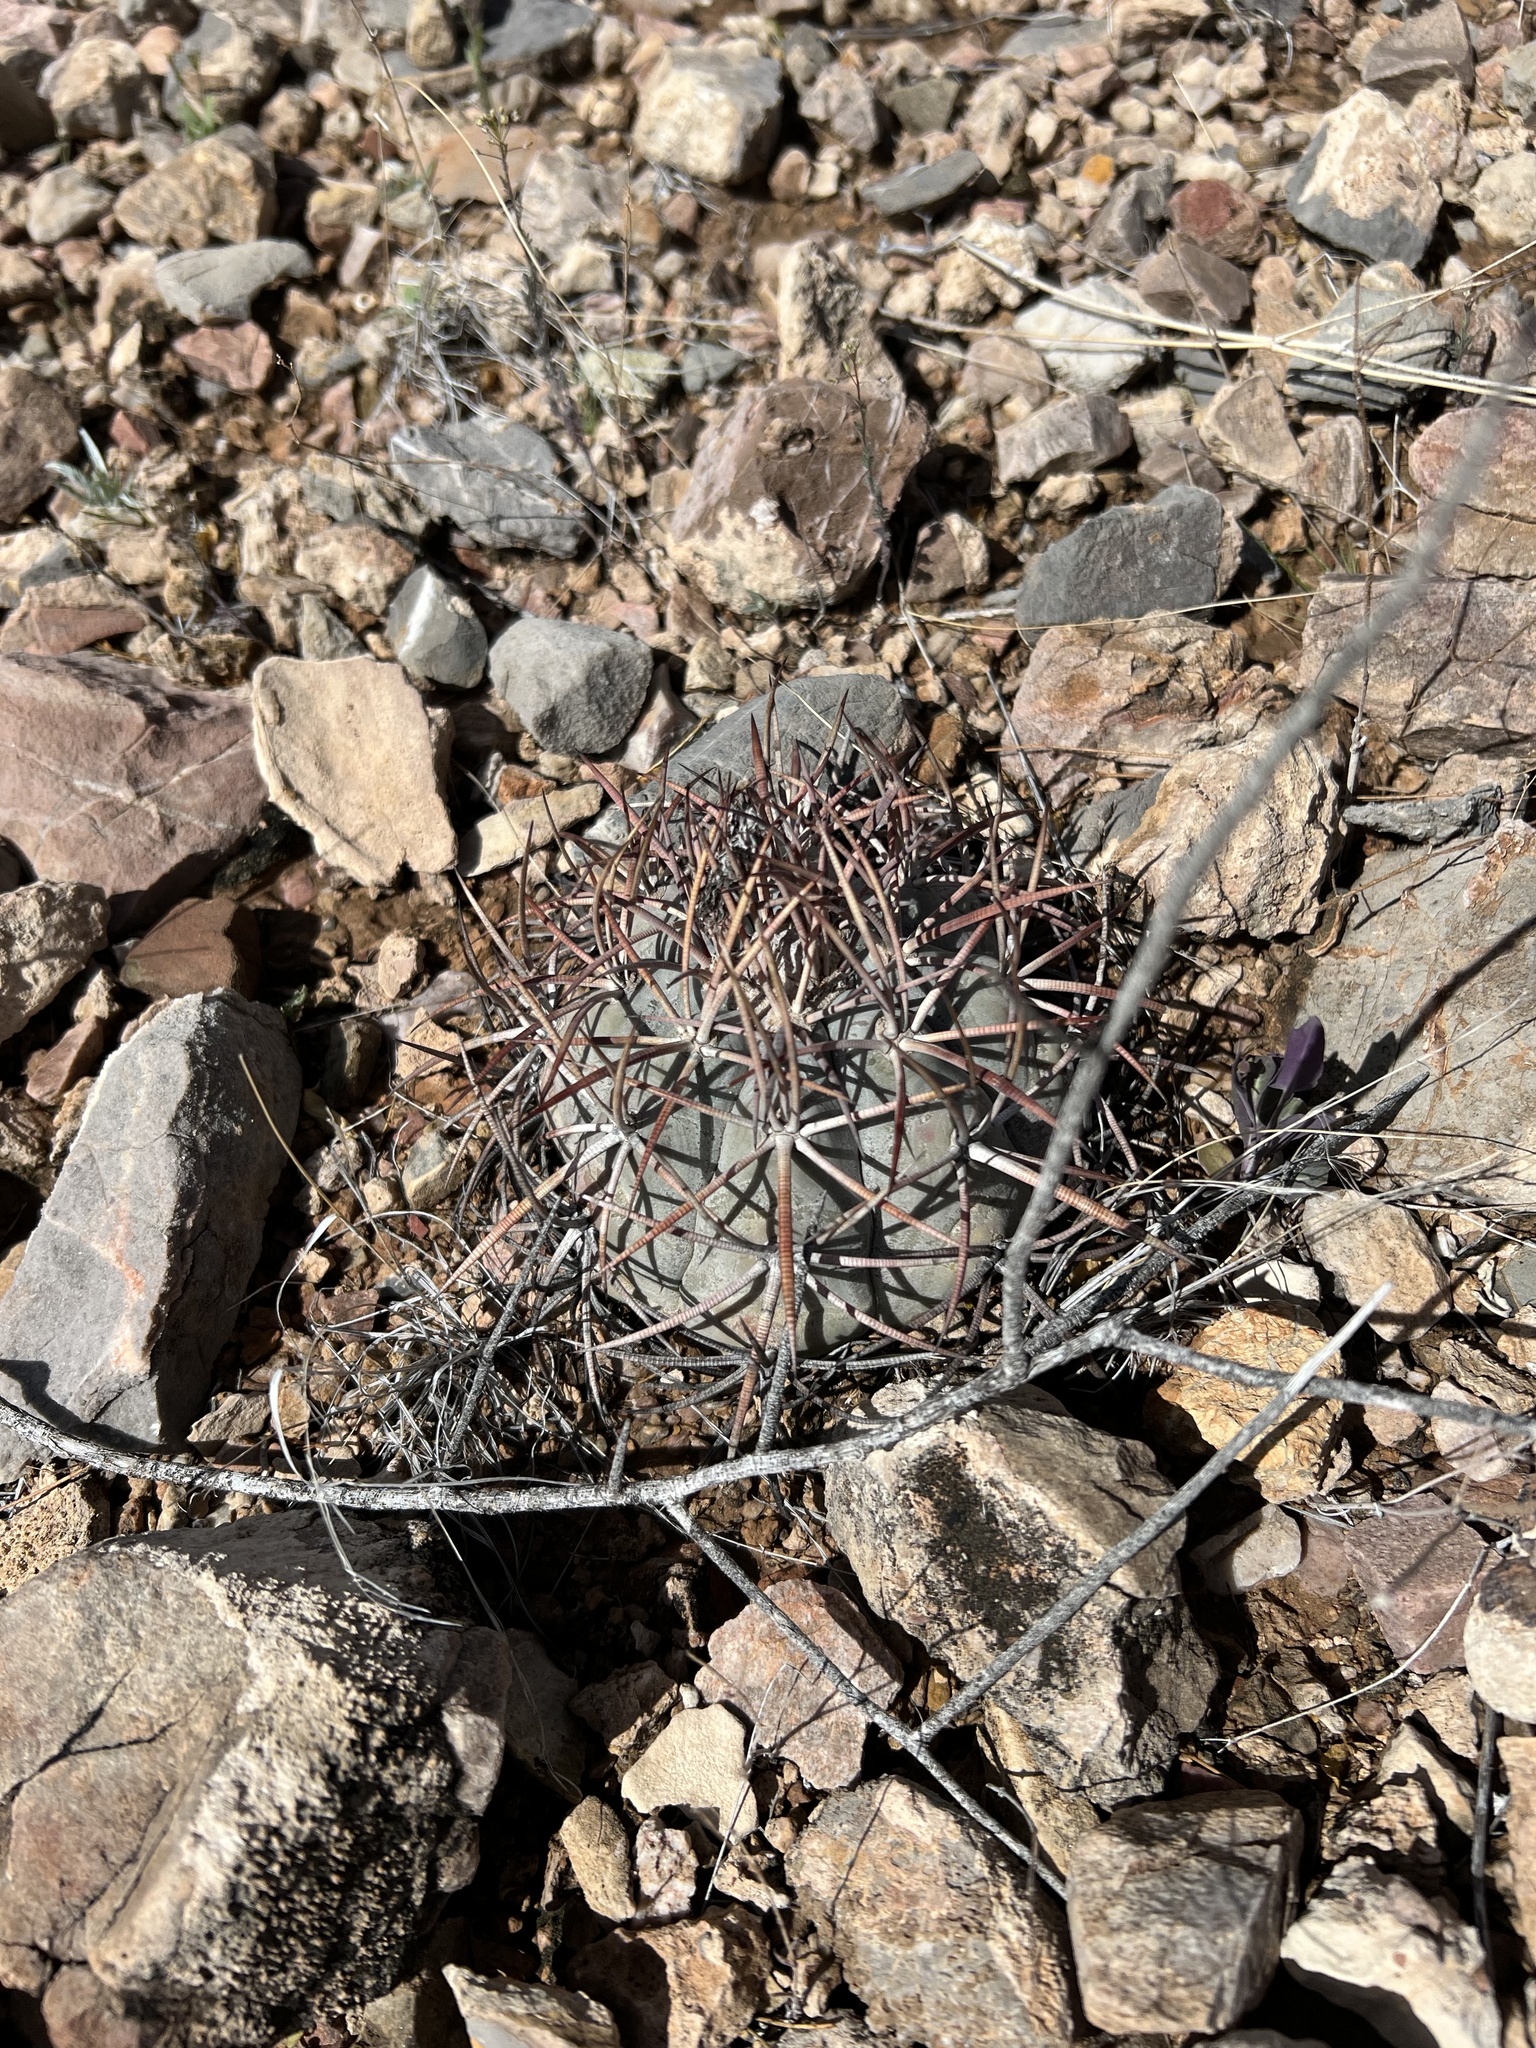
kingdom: Plantae
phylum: Tracheophyta
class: Magnoliopsida
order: Caryophyllales
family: Cactaceae
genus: Echinocactus
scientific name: Echinocactus horizonthalonius
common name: Devilshead
